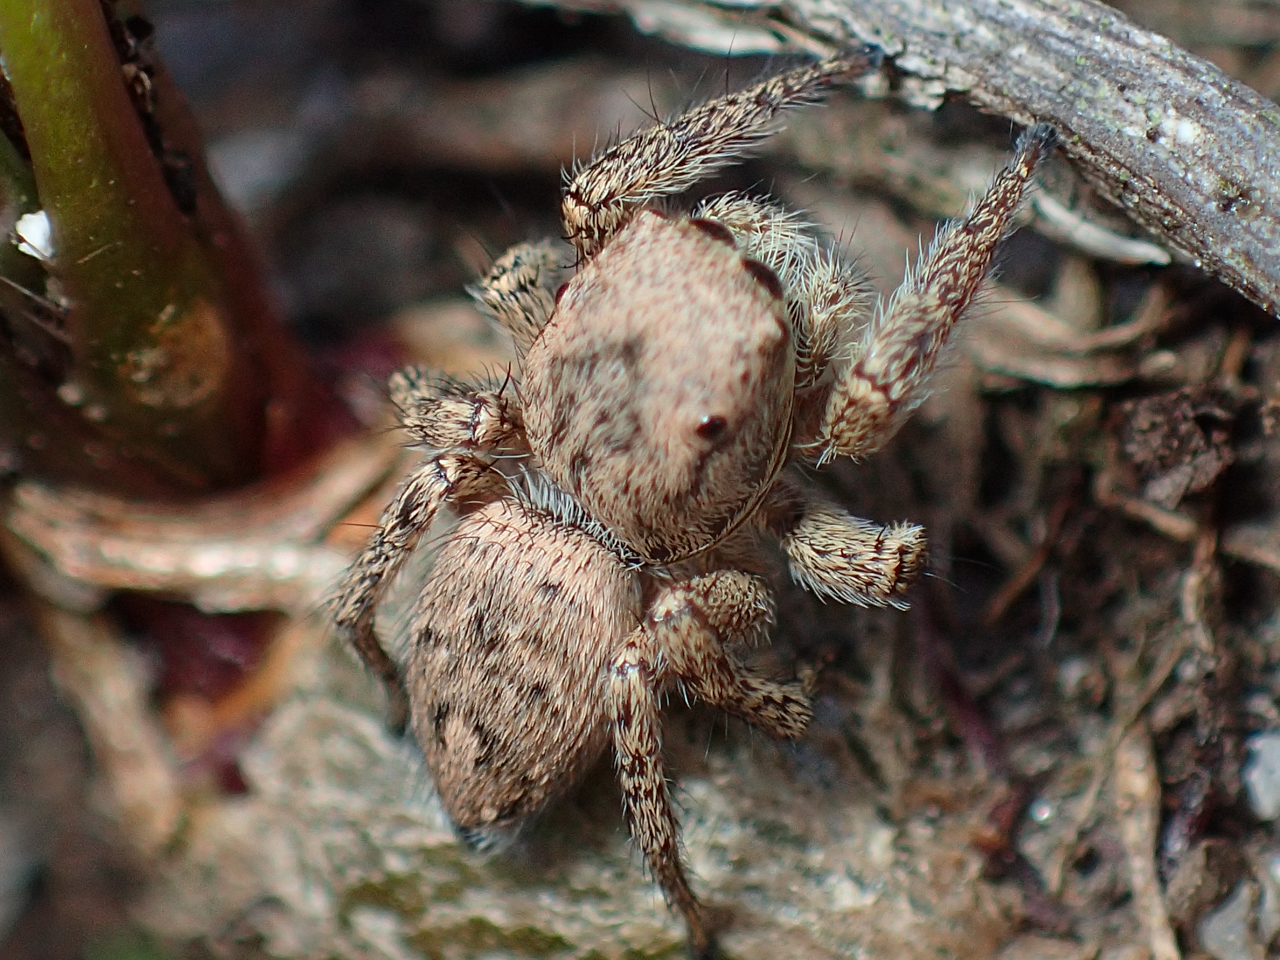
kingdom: Animalia
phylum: Arthropoda
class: Arachnida
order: Araneae
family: Salticidae
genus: Habronattus
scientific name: Habronattus coecatus
